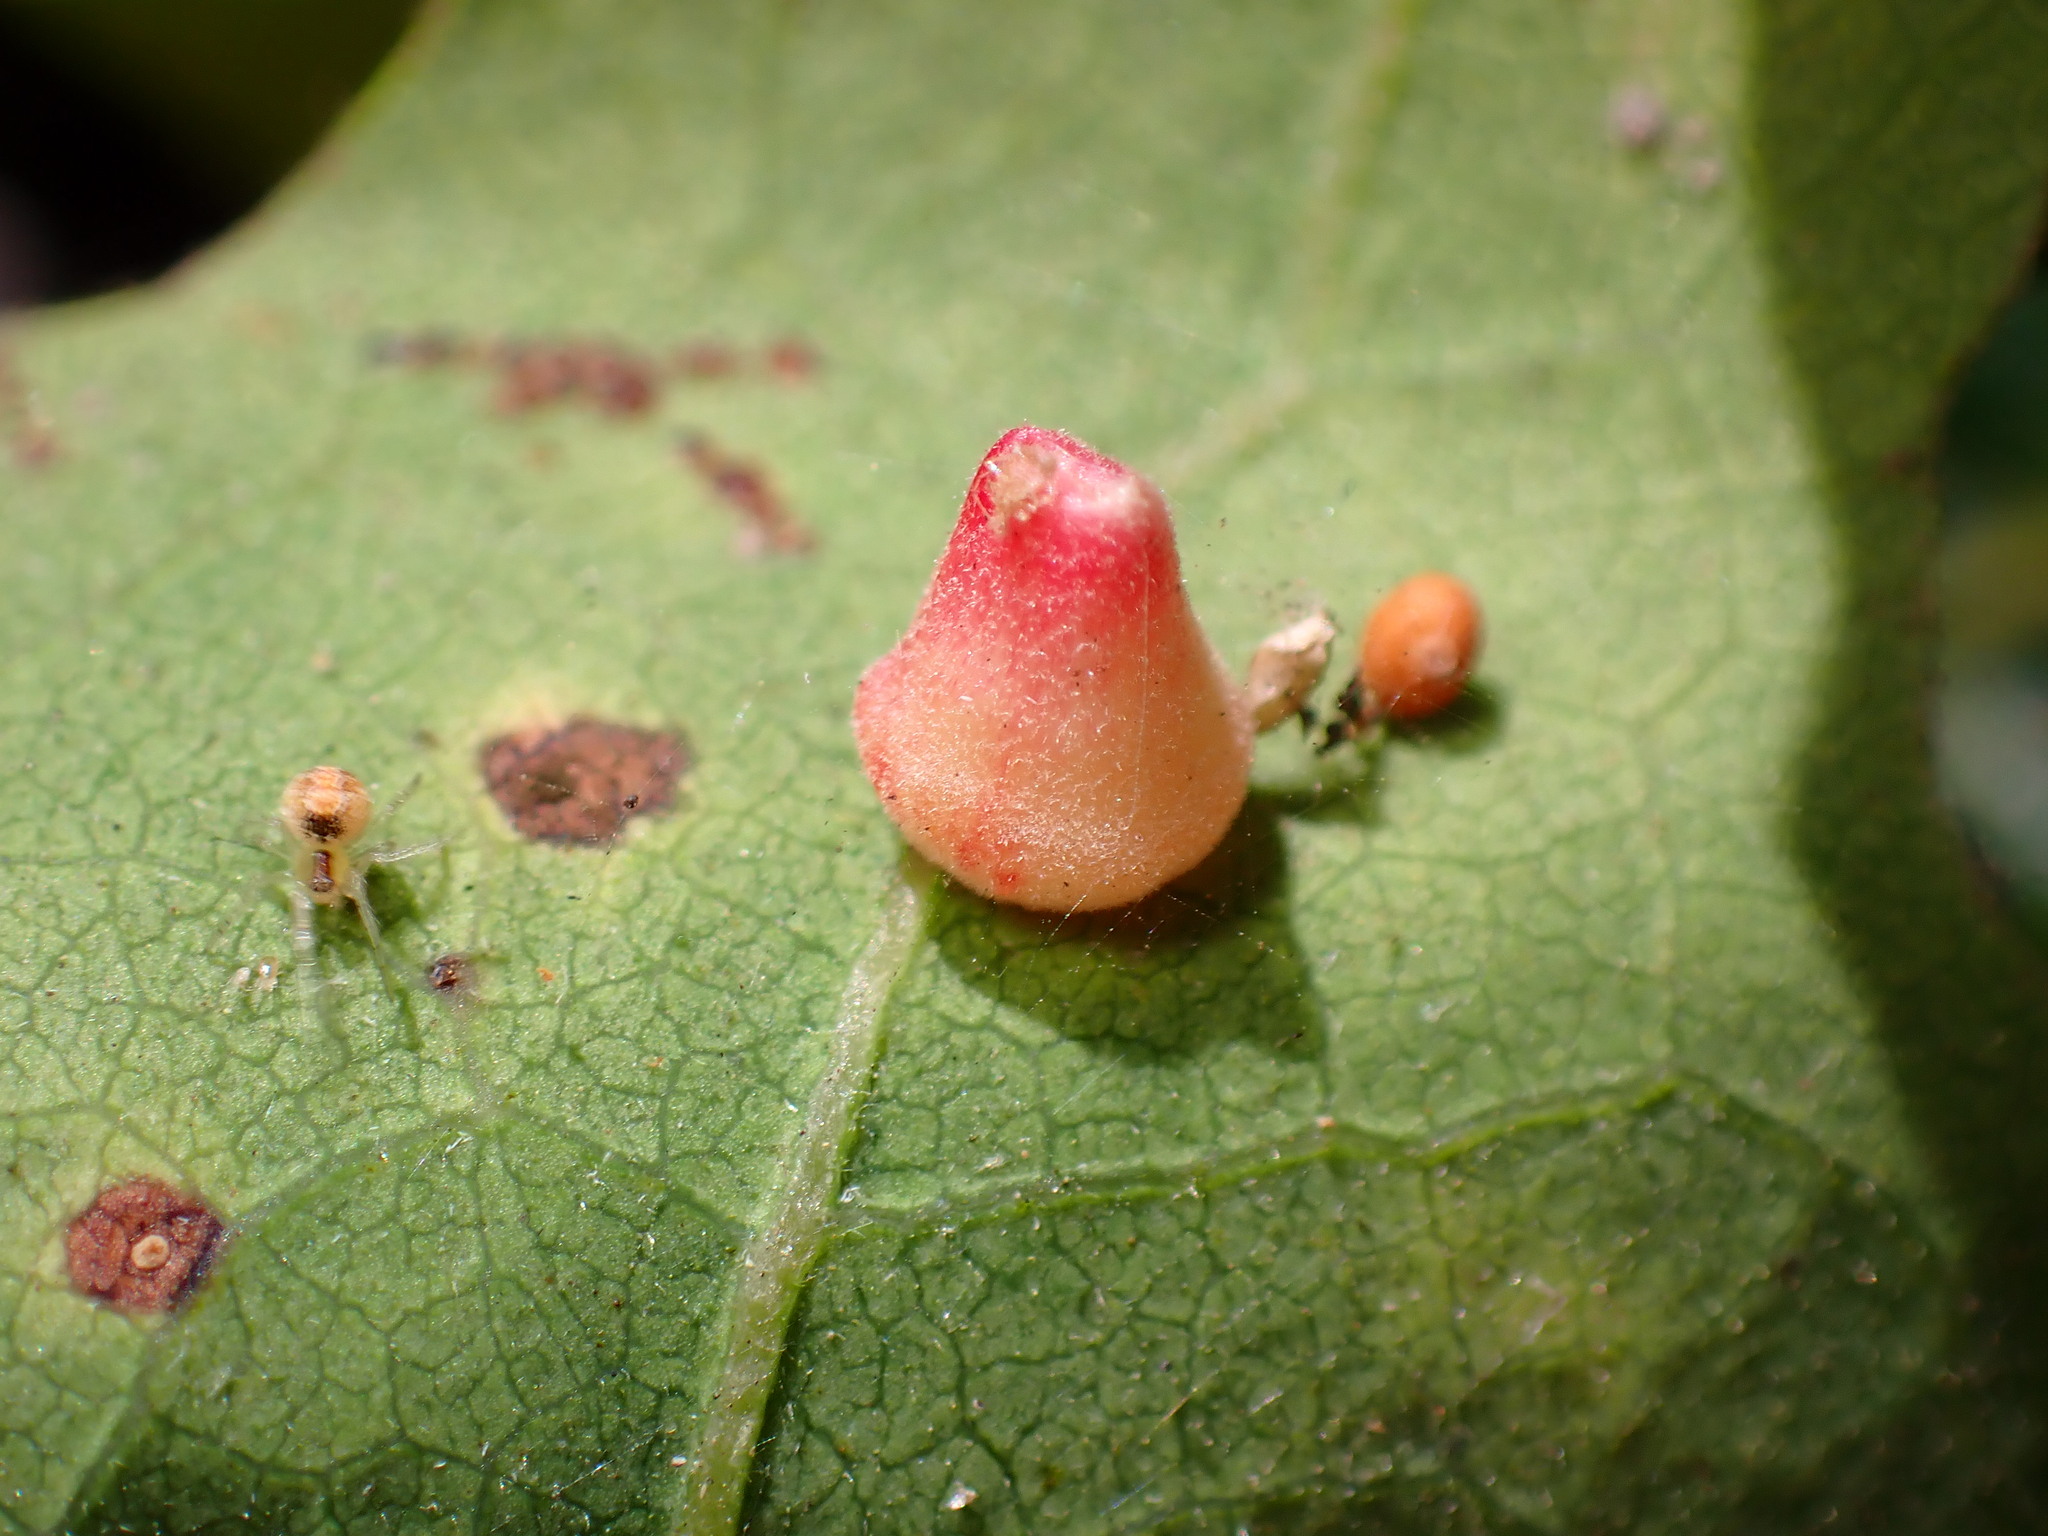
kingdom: Animalia
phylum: Arthropoda
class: Insecta
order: Hymenoptera
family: Cynipidae
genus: Andricus
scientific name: Andricus
